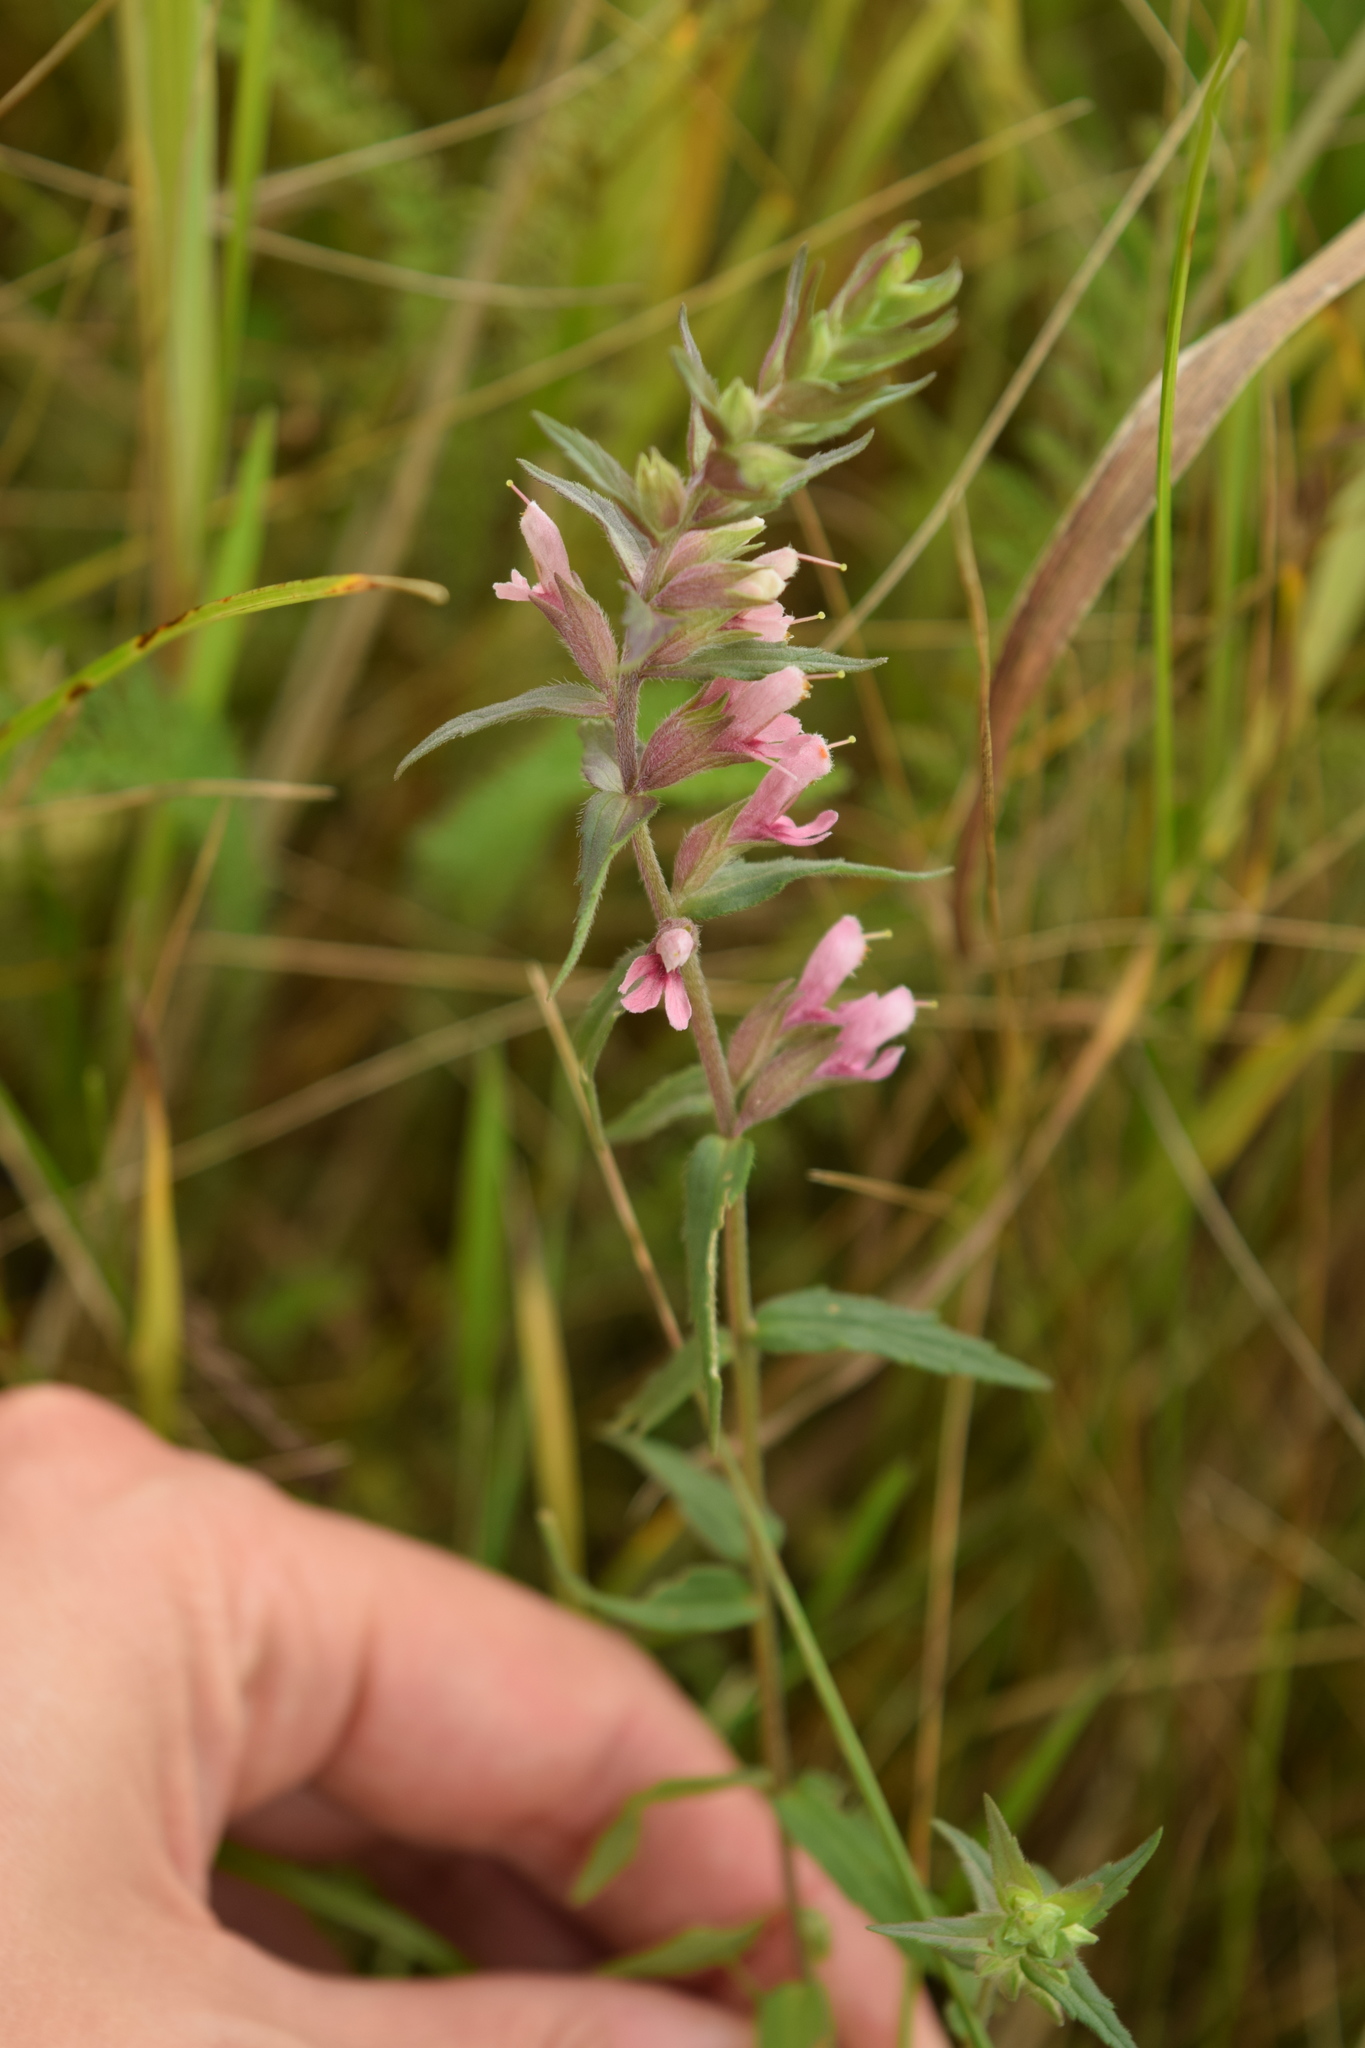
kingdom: Plantae
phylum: Tracheophyta
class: Magnoliopsida
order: Lamiales
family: Orobanchaceae
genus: Odontites
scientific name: Odontites vulgaris
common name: Broomrape
